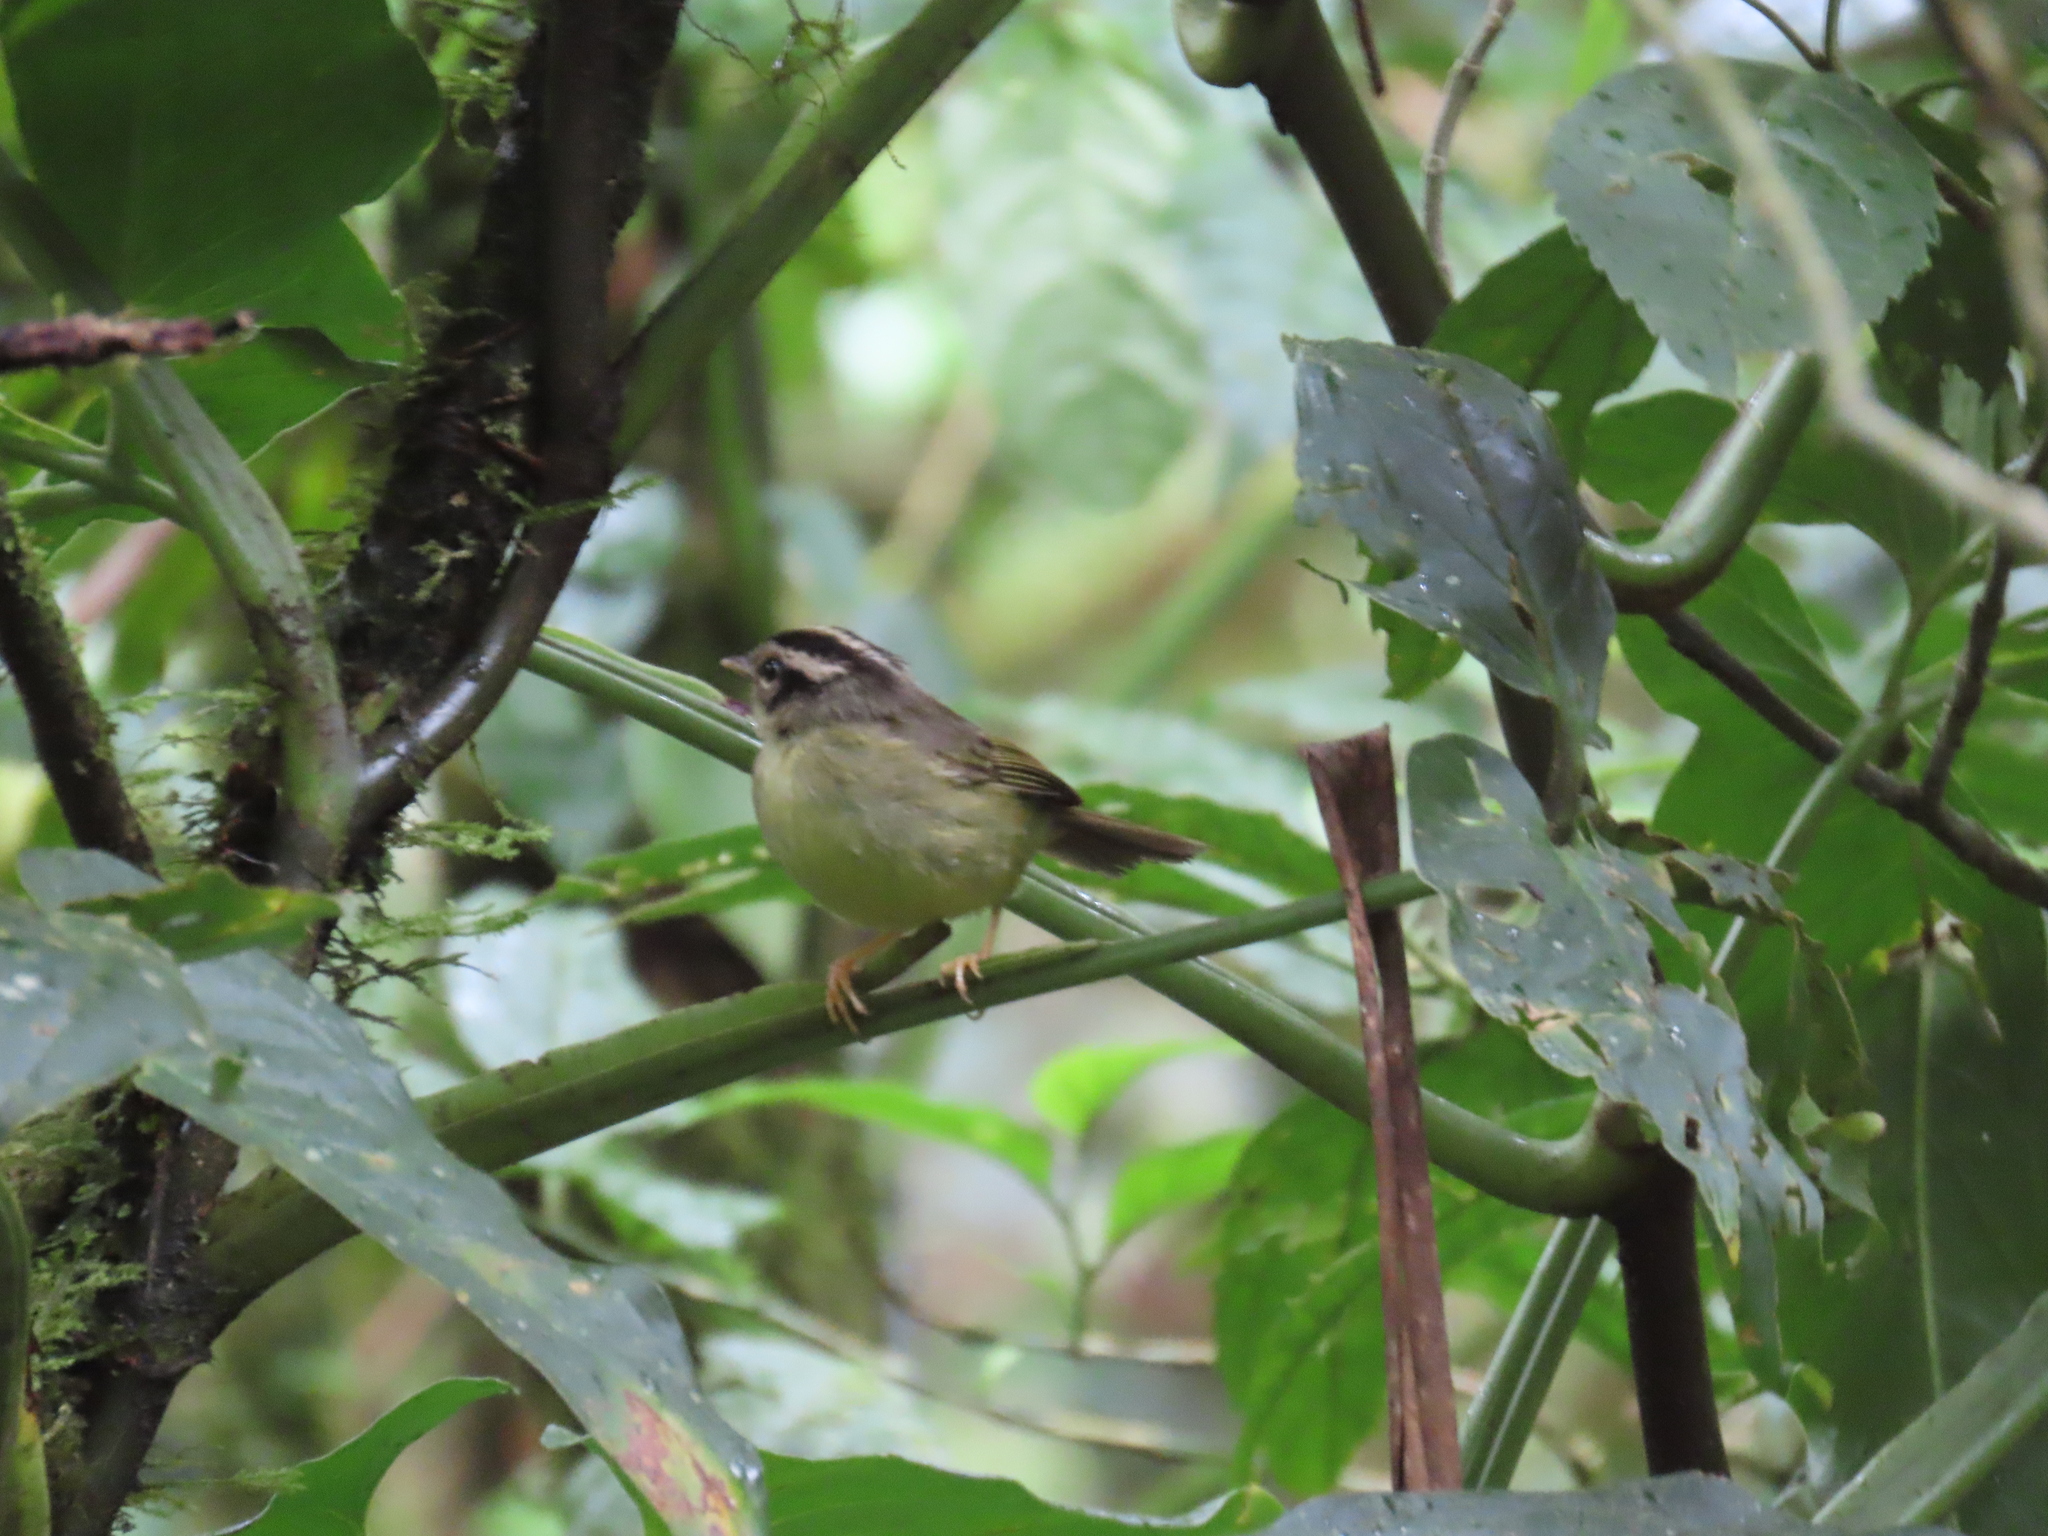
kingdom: Animalia
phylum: Chordata
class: Aves
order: Passeriformes
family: Parulidae
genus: Basileuterus
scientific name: Basileuterus melanotis
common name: Black-eared warbler
